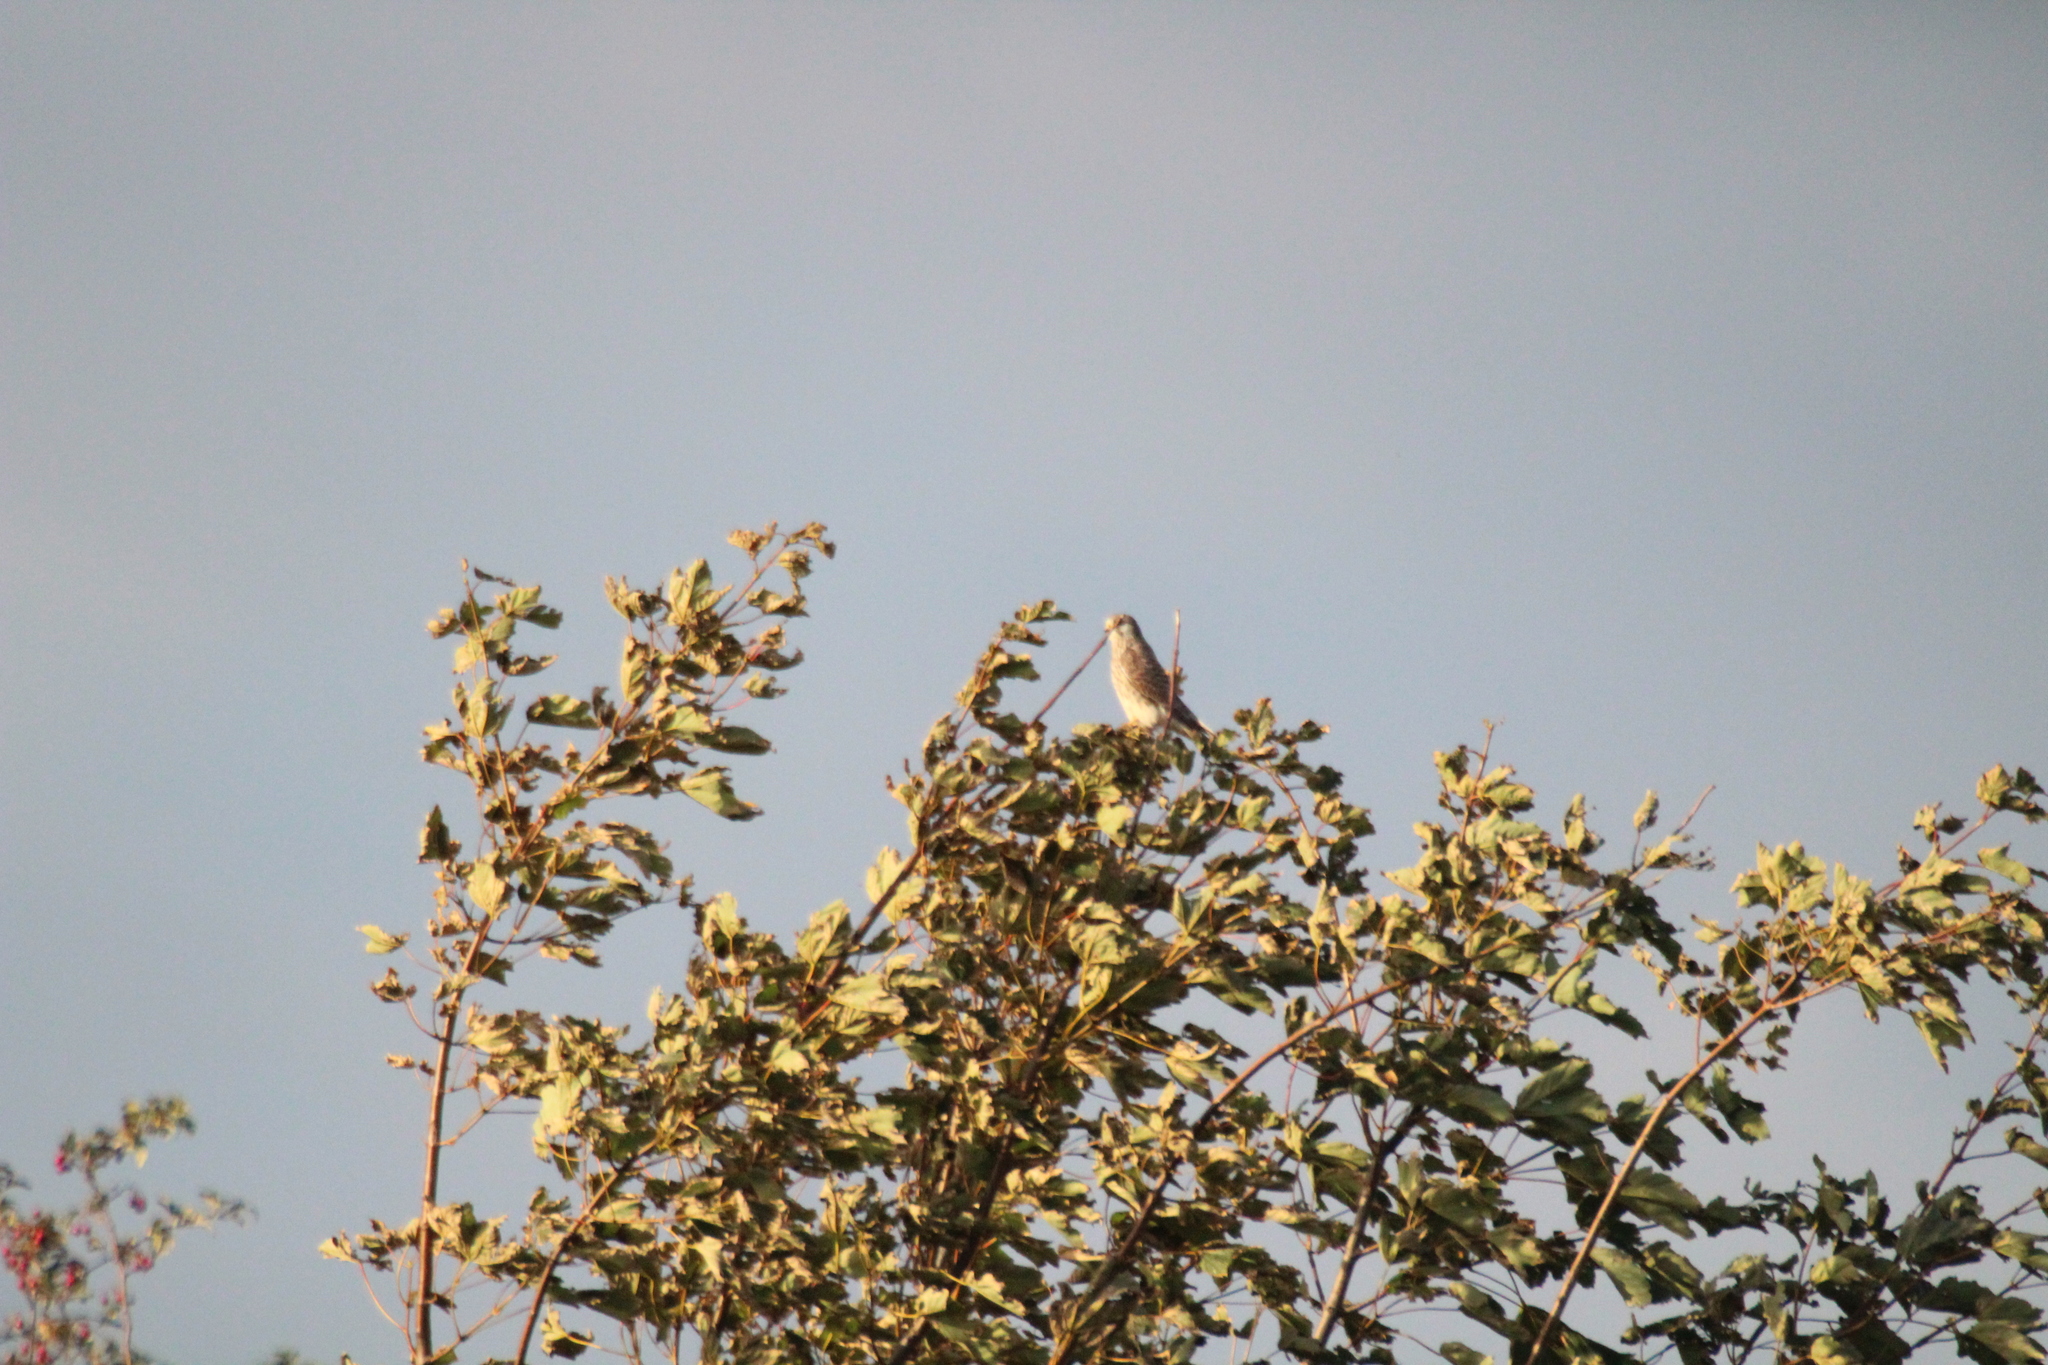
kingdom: Animalia
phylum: Chordata
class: Aves
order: Falconiformes
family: Falconidae
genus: Falco
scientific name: Falco tinnunculus
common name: Common kestrel
